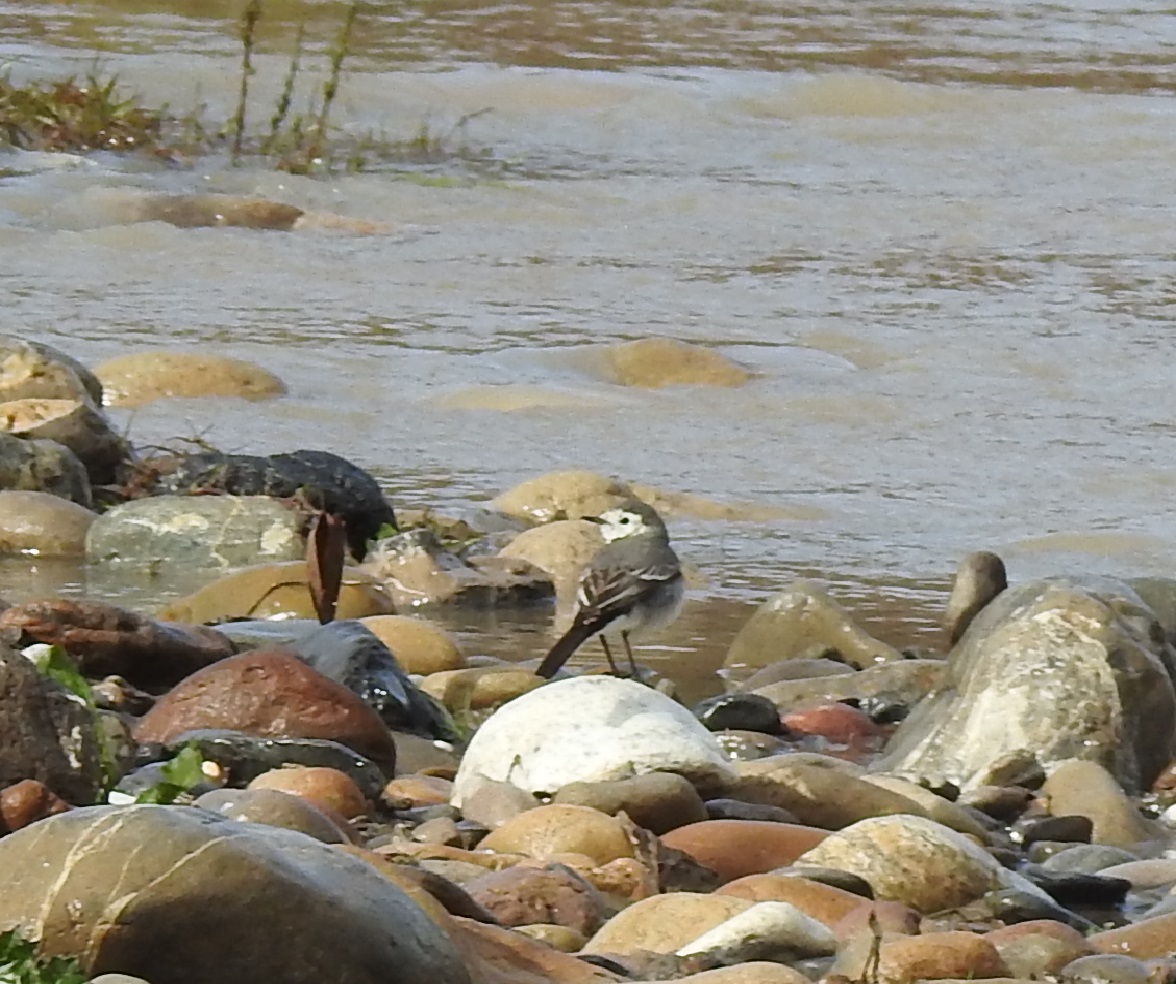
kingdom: Animalia
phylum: Chordata
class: Aves
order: Passeriformes
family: Motacillidae
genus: Motacilla
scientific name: Motacilla alba
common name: White wagtail
